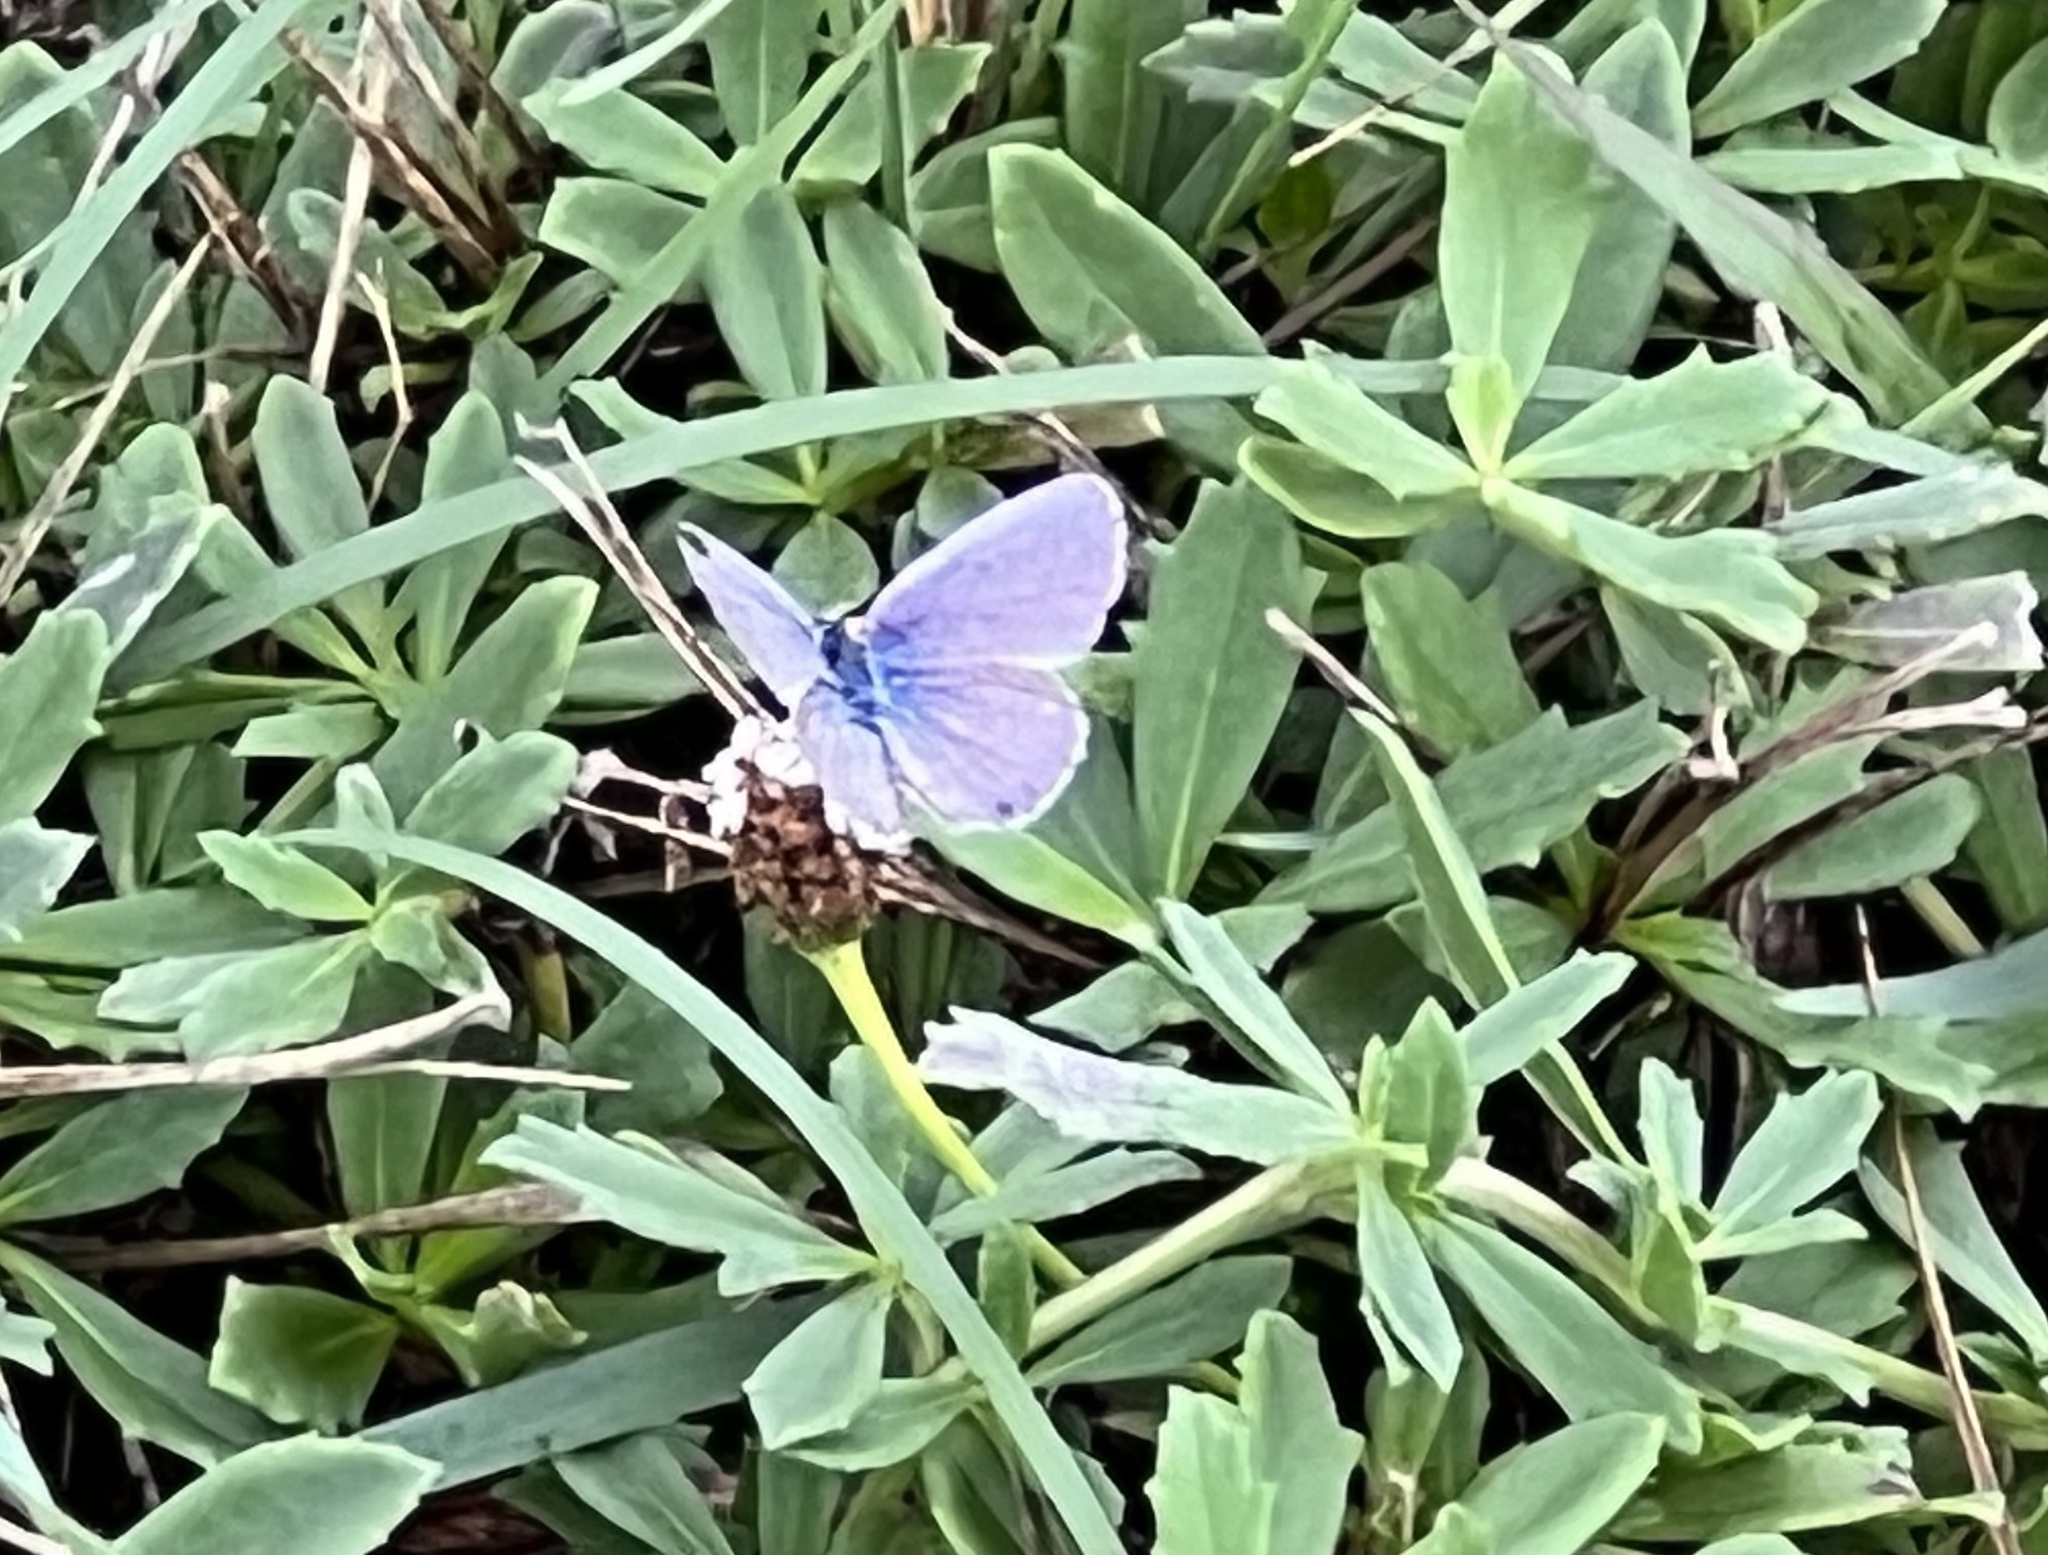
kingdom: Animalia
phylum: Arthropoda
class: Insecta
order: Lepidoptera
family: Lycaenidae
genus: Hemiargus
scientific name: Hemiargus ceraunus
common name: Ceraunus blue
